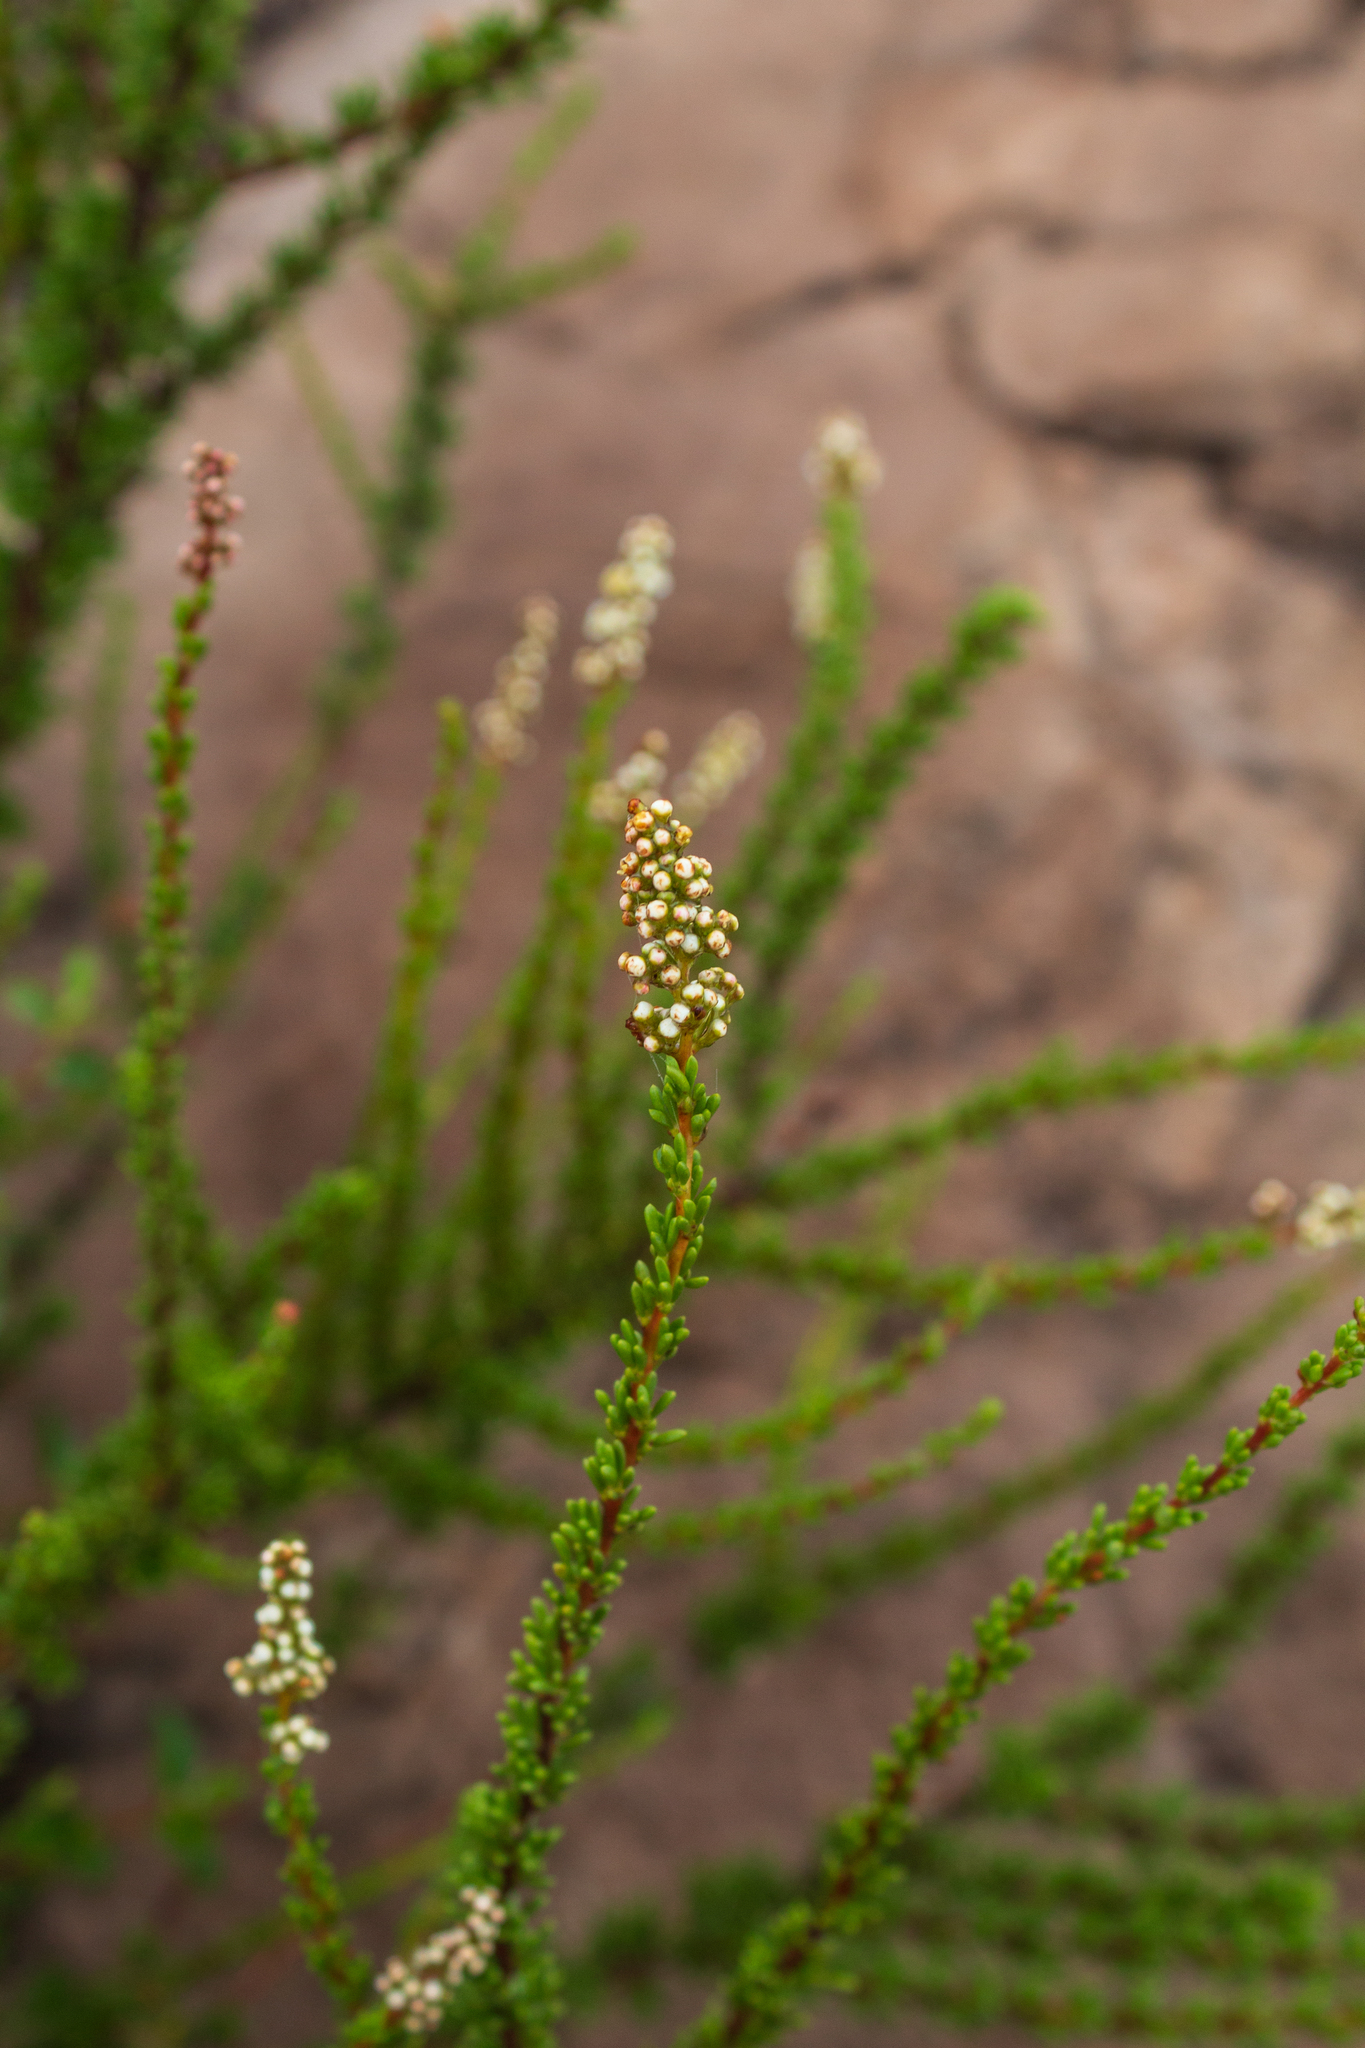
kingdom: Plantae
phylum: Tracheophyta
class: Magnoliopsida
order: Rosales
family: Rosaceae
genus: Adenostoma
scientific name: Adenostoma fasciculatum
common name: Chamise
